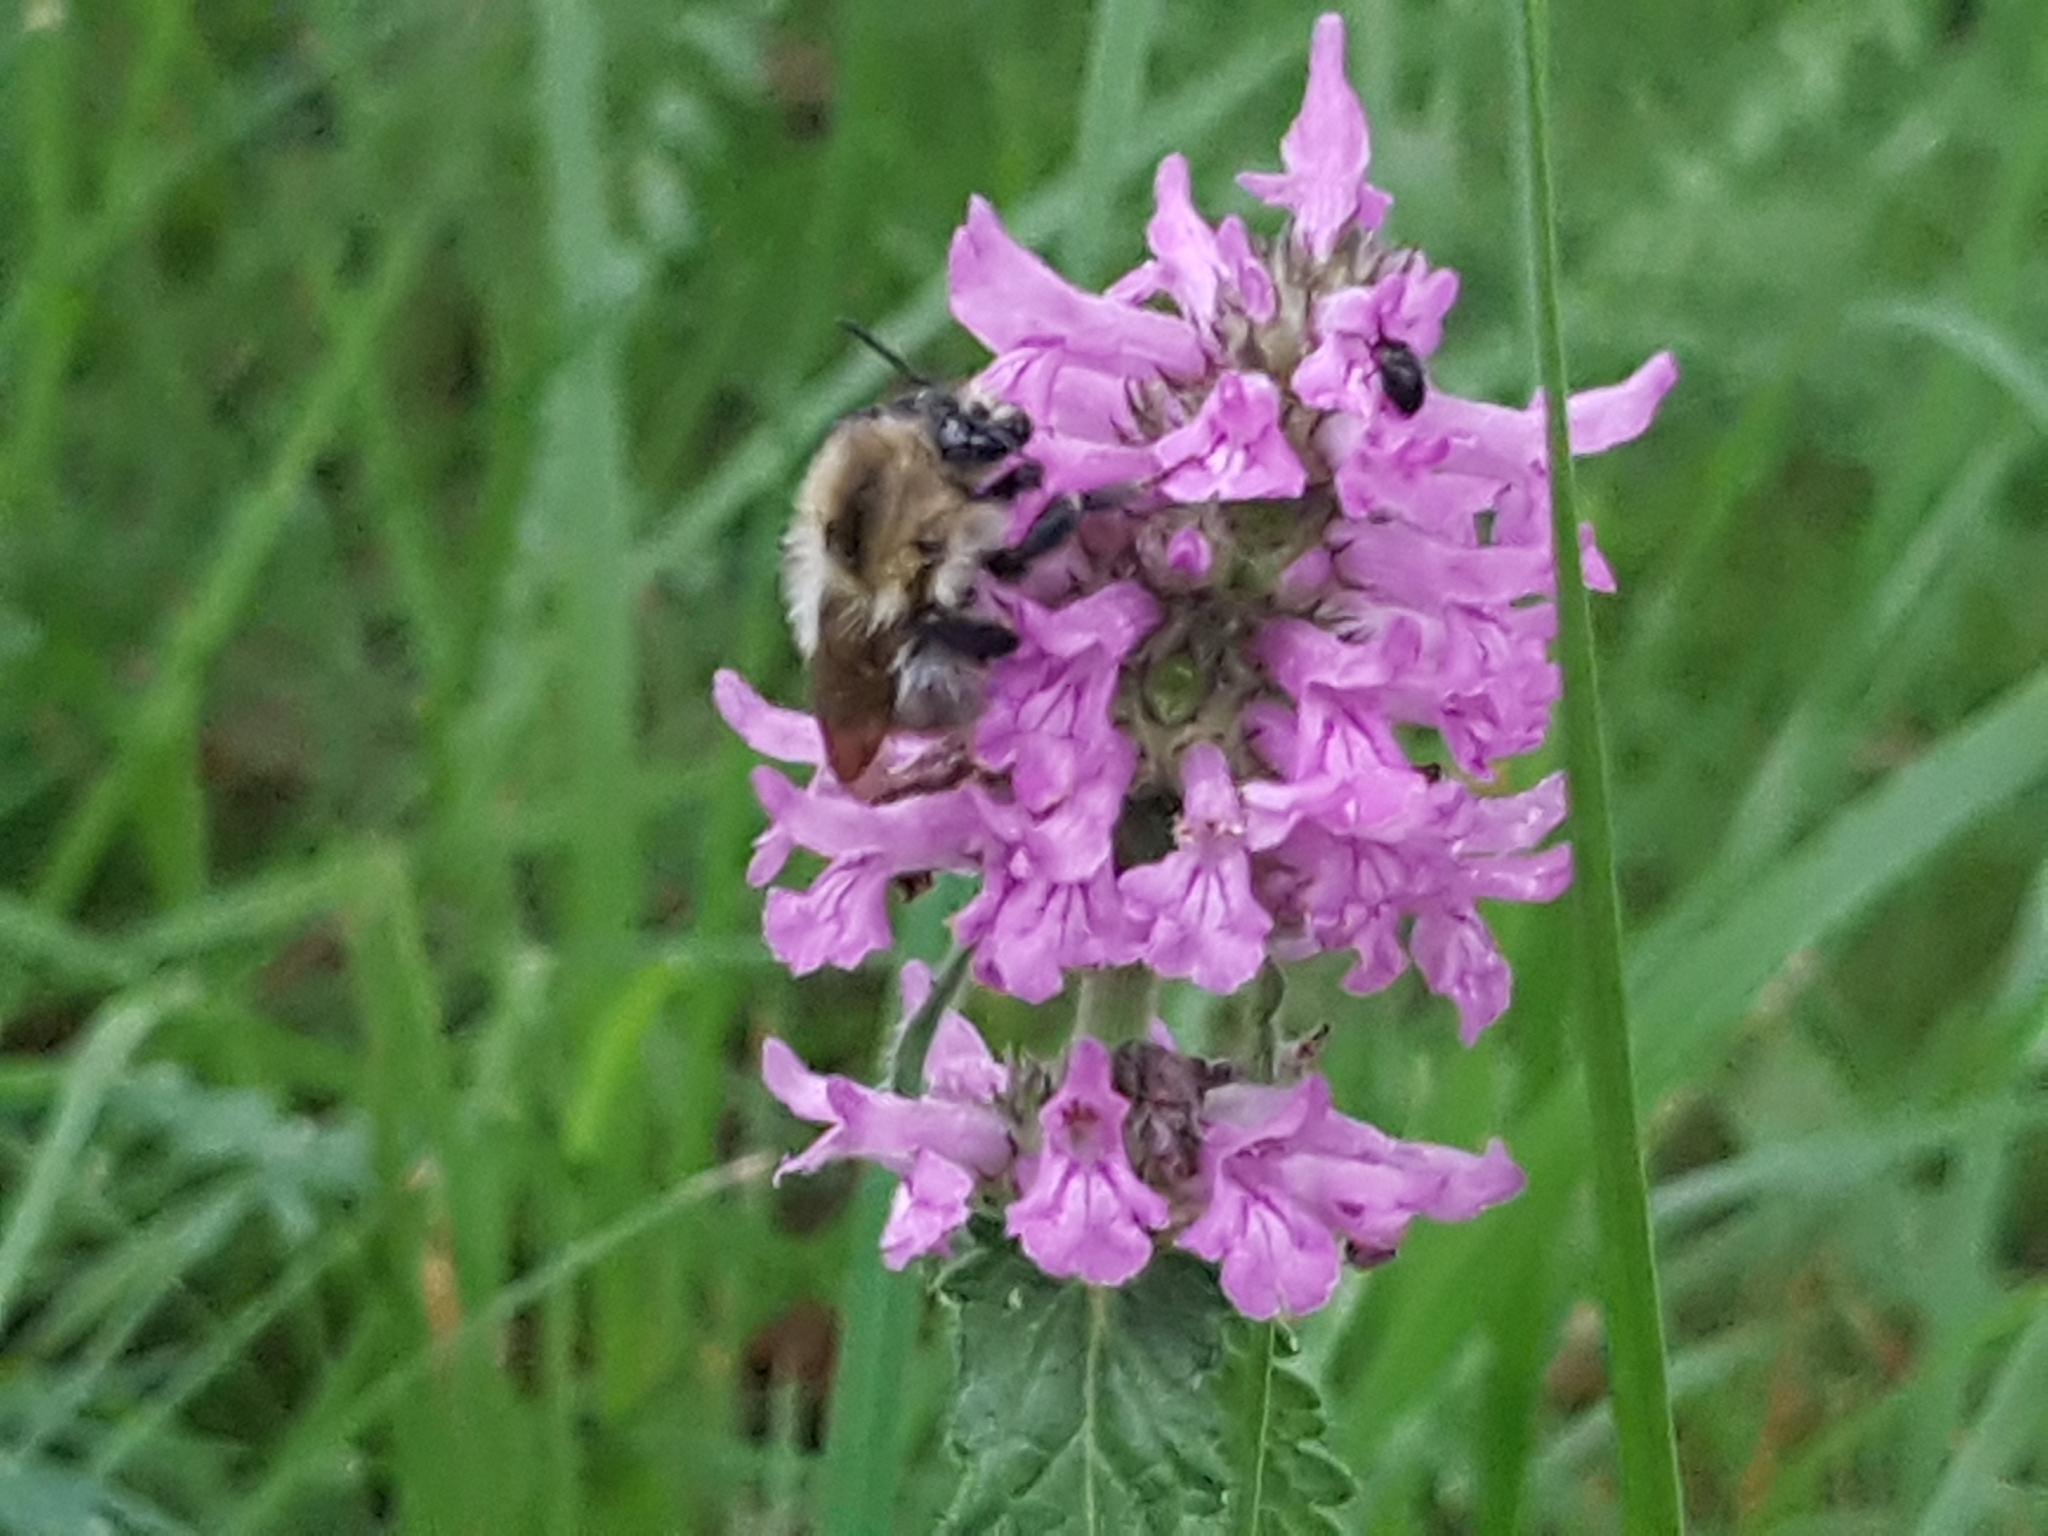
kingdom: Animalia
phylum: Arthropoda
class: Insecta
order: Hymenoptera
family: Apidae
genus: Bombus
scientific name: Bombus pascuorum
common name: Common carder bee
